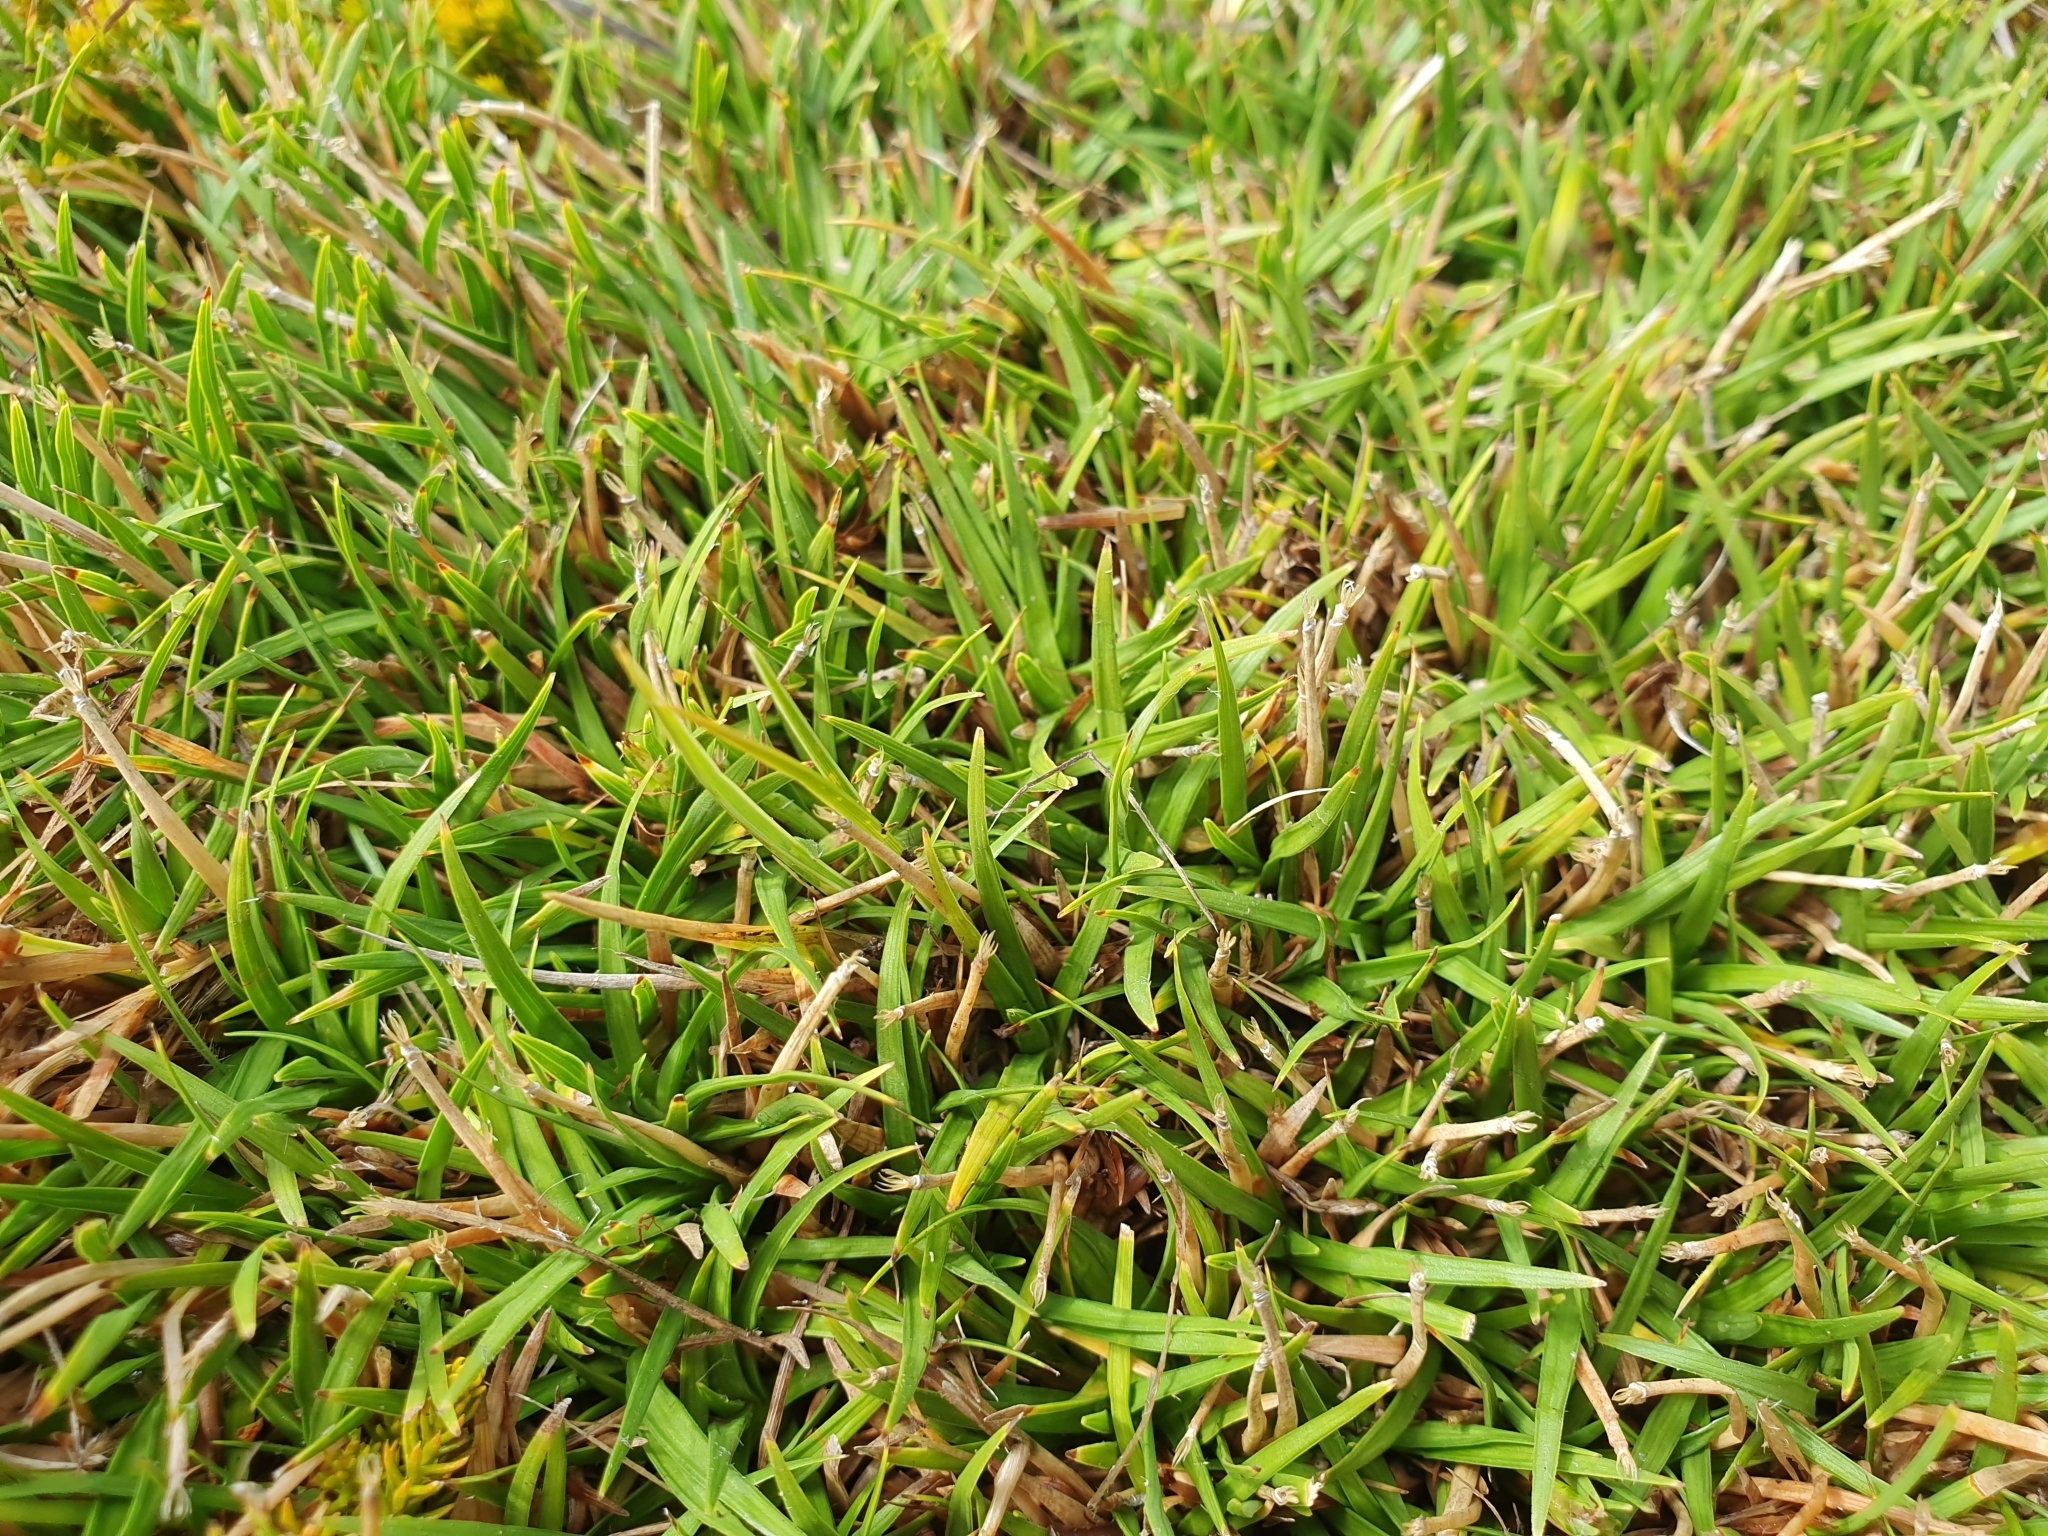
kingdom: Plantae
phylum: Tracheophyta
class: Liliopsida
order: Poales
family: Cyperaceae
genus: Oreobolus
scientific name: Oreobolus impar
